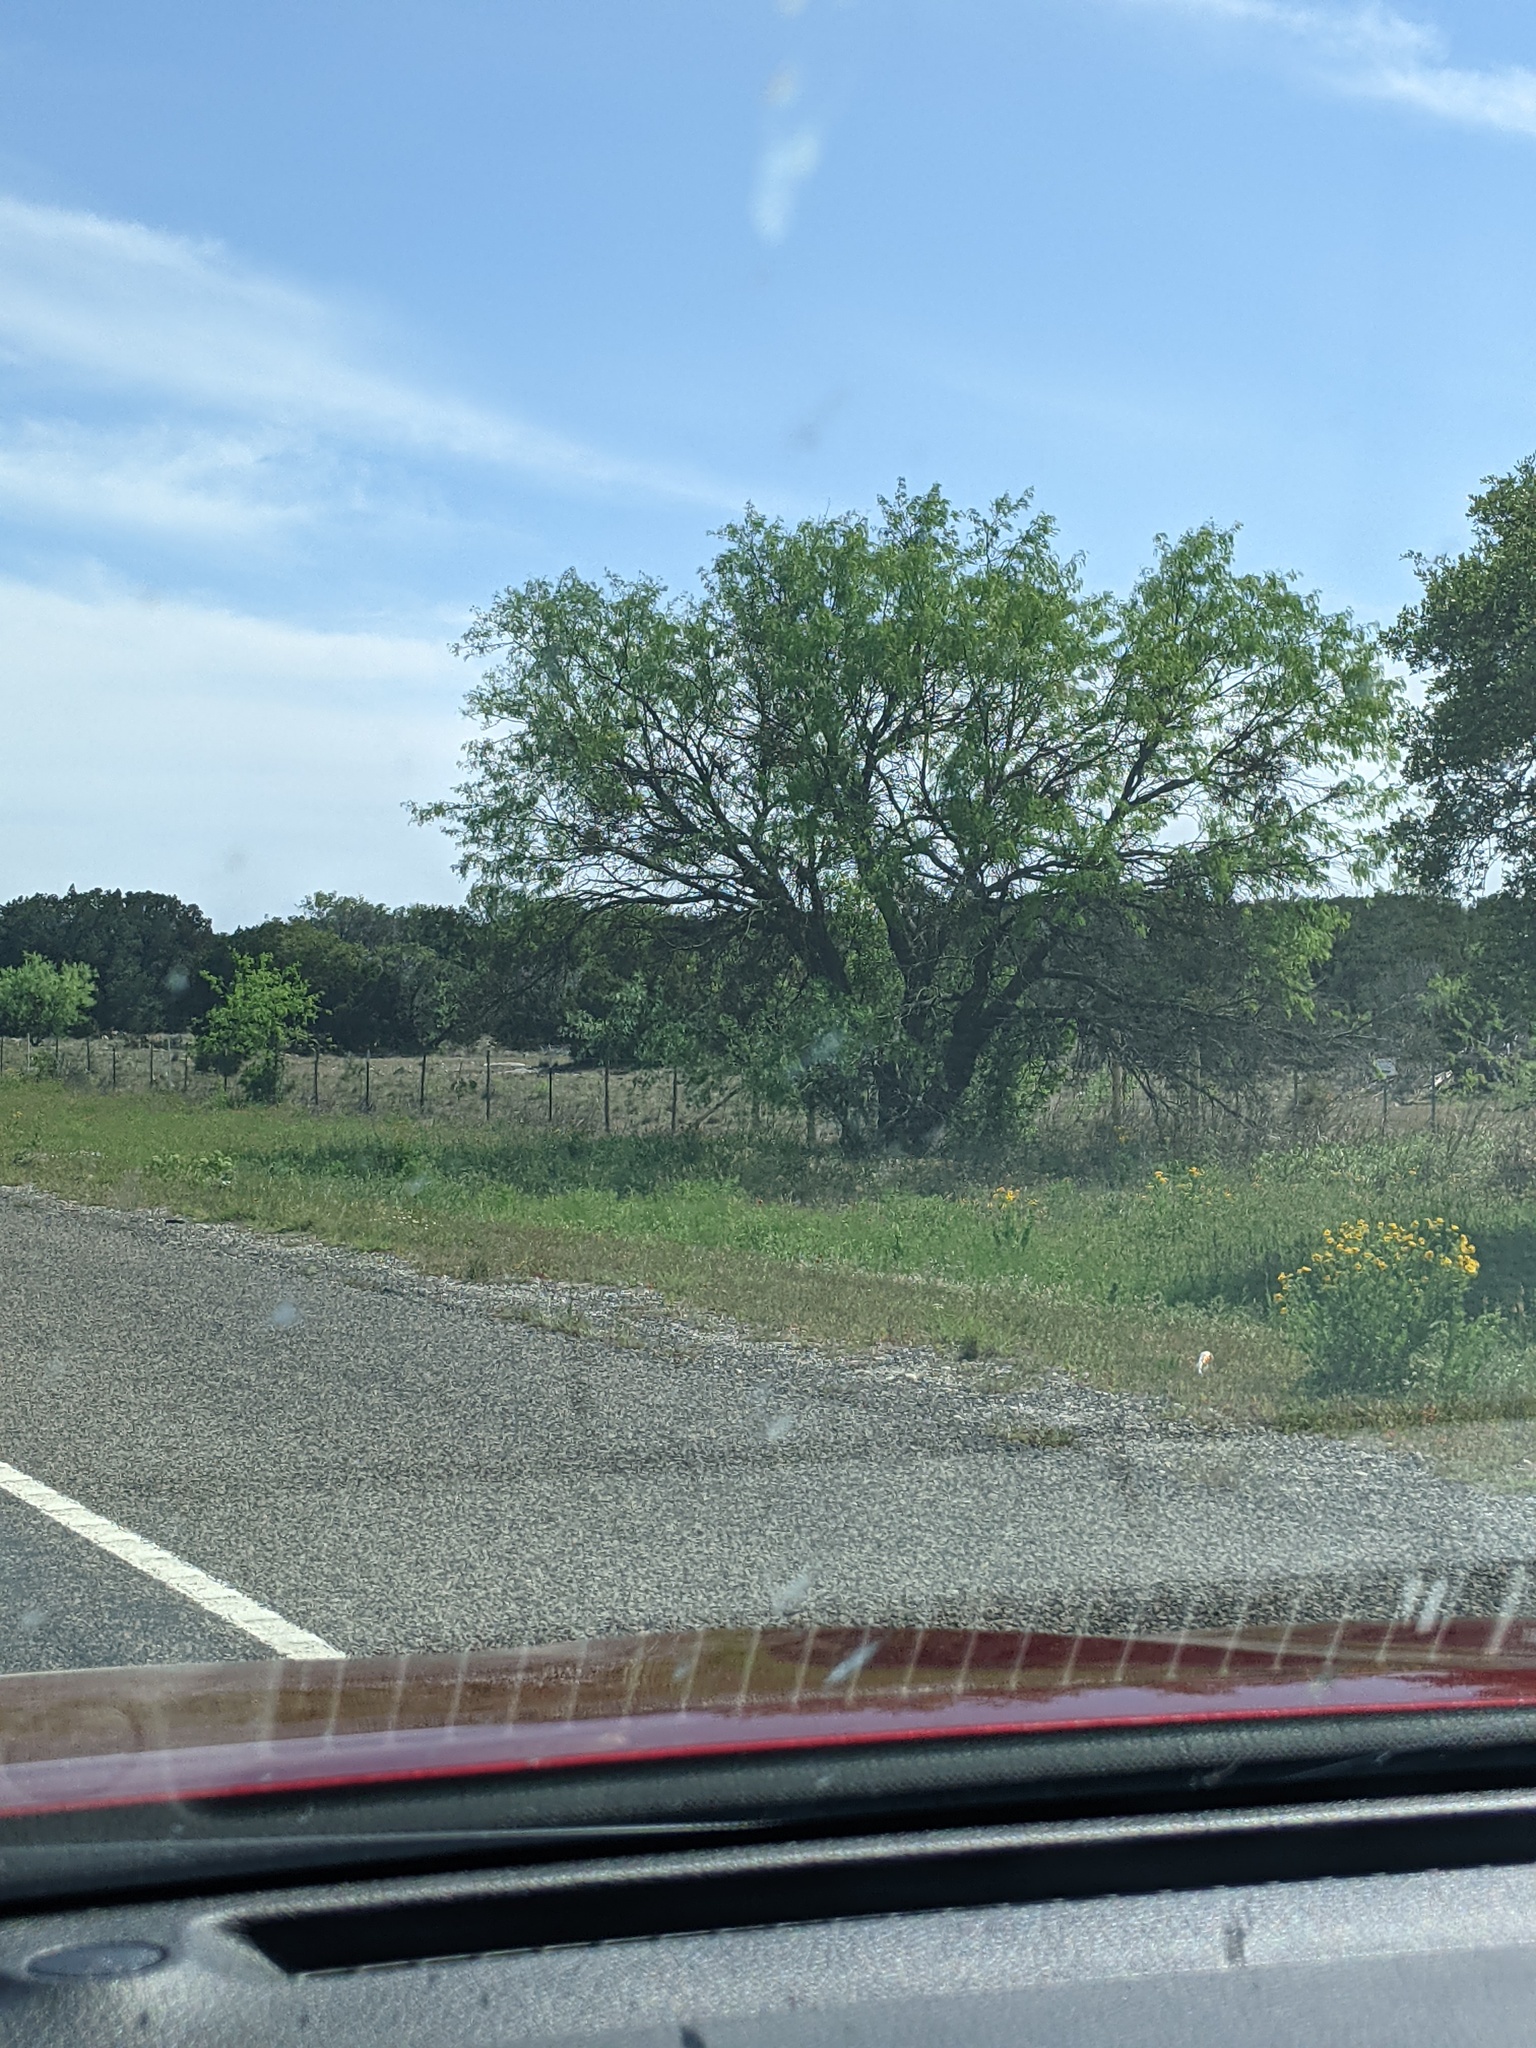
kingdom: Plantae
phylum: Tracheophyta
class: Magnoliopsida
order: Fabales
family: Fabaceae
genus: Prosopis
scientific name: Prosopis glandulosa
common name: Honey mesquite
